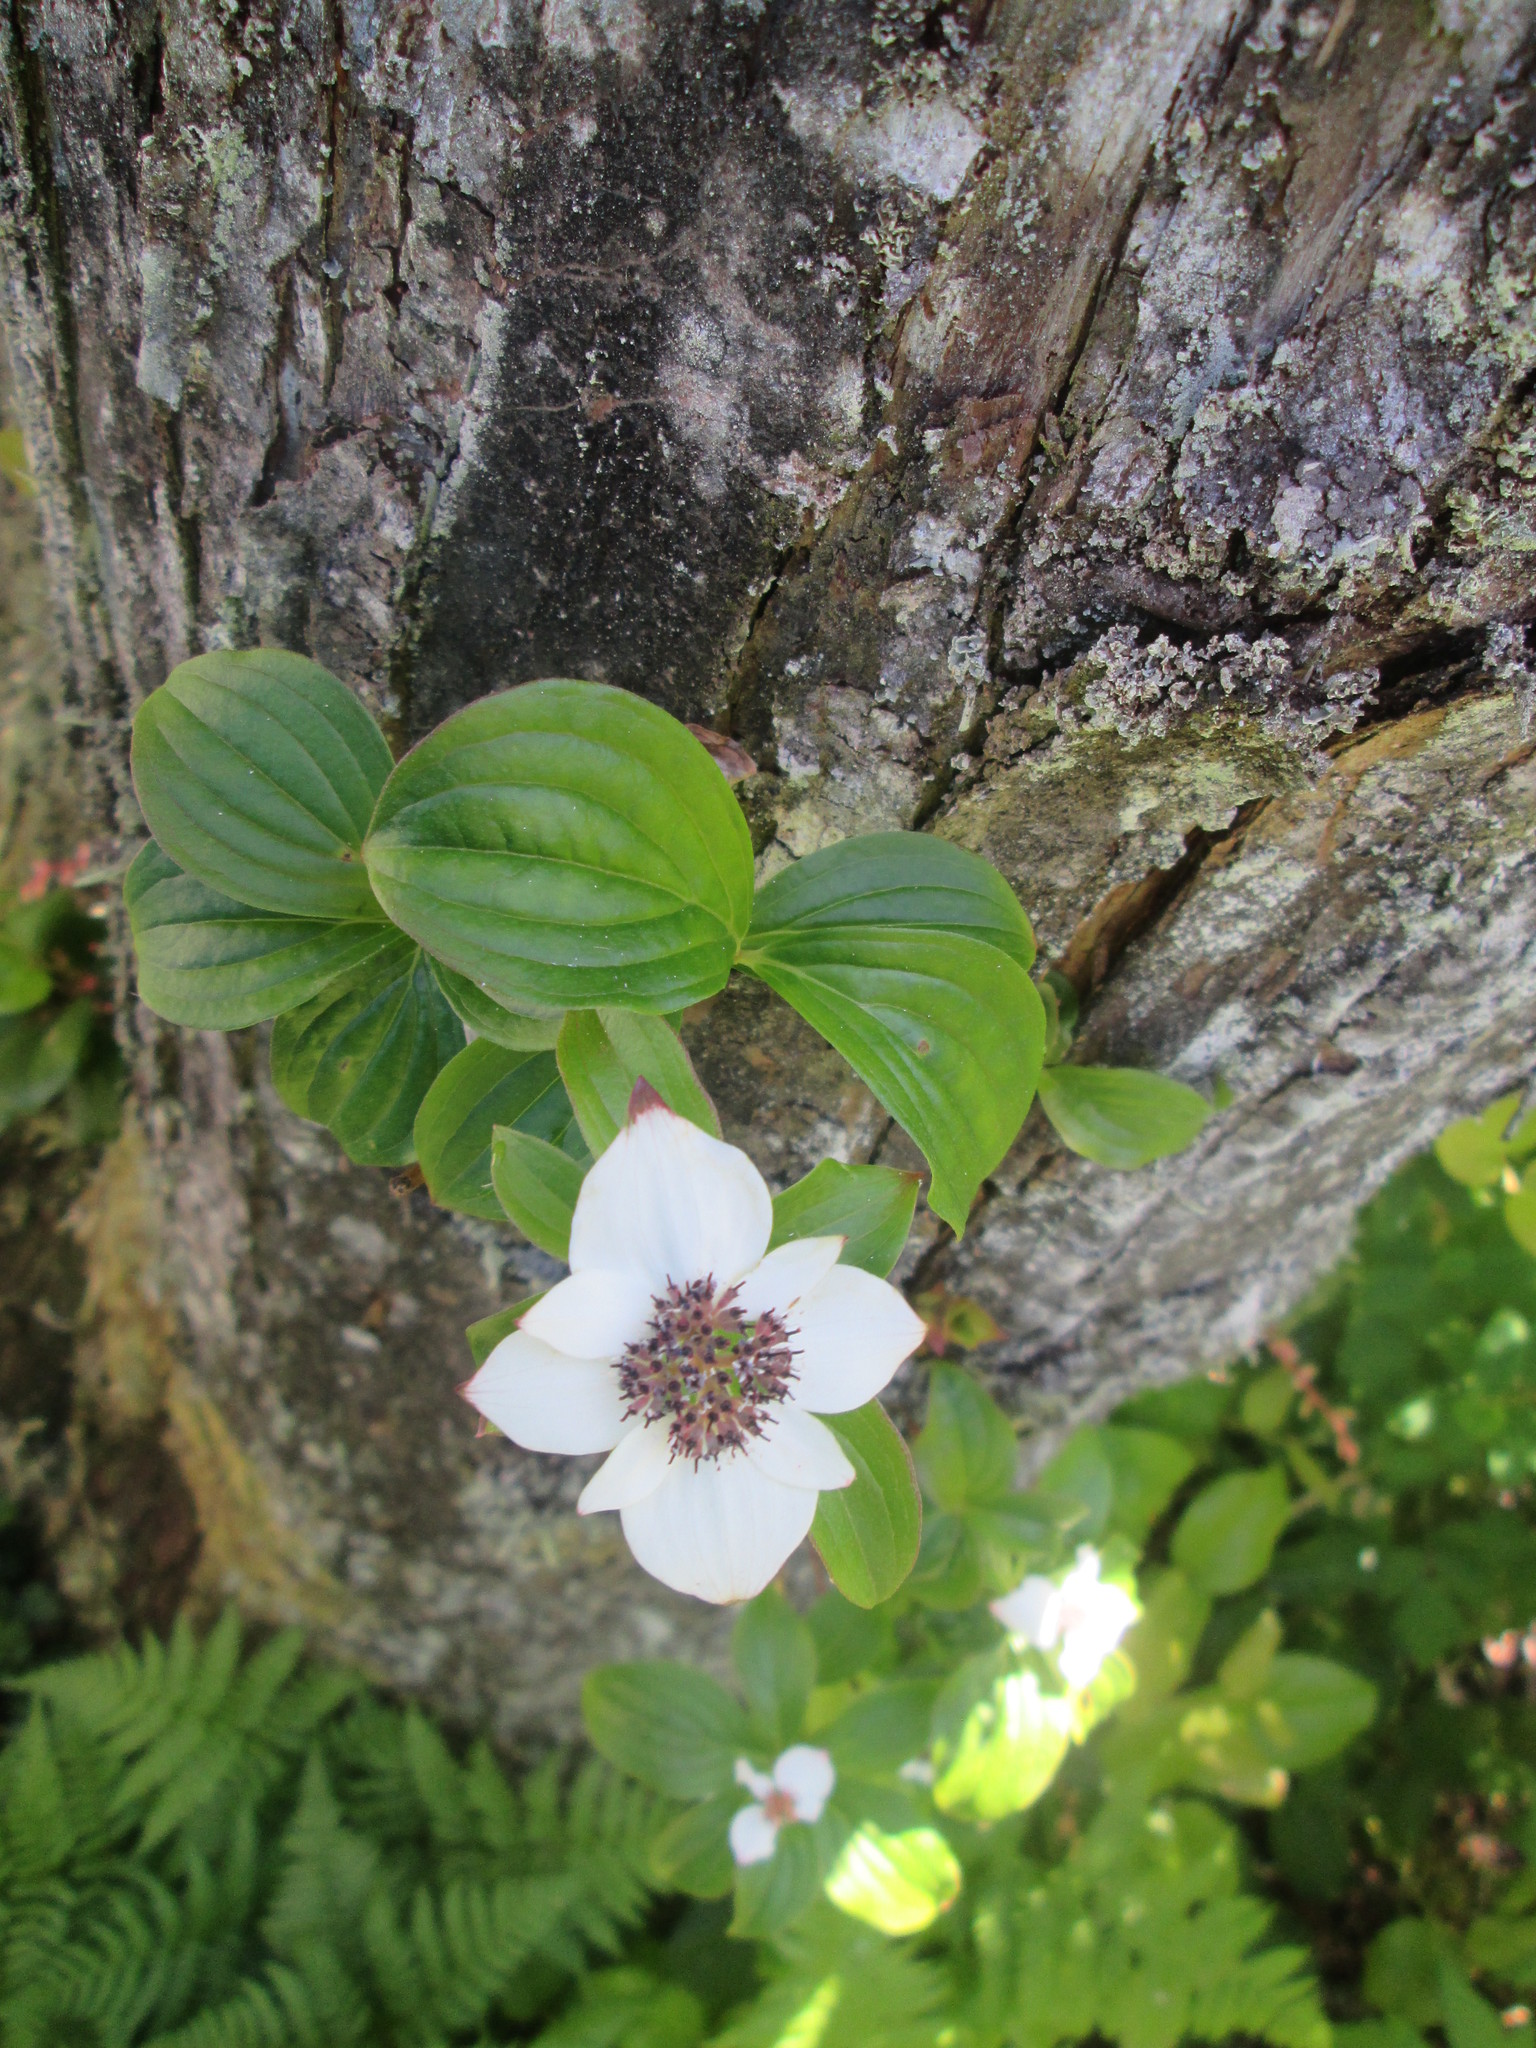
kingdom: Plantae
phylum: Tracheophyta
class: Magnoliopsida
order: Cornales
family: Cornaceae
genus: Cornus
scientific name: Cornus unalaschkensis
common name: Alaska bunchberry
